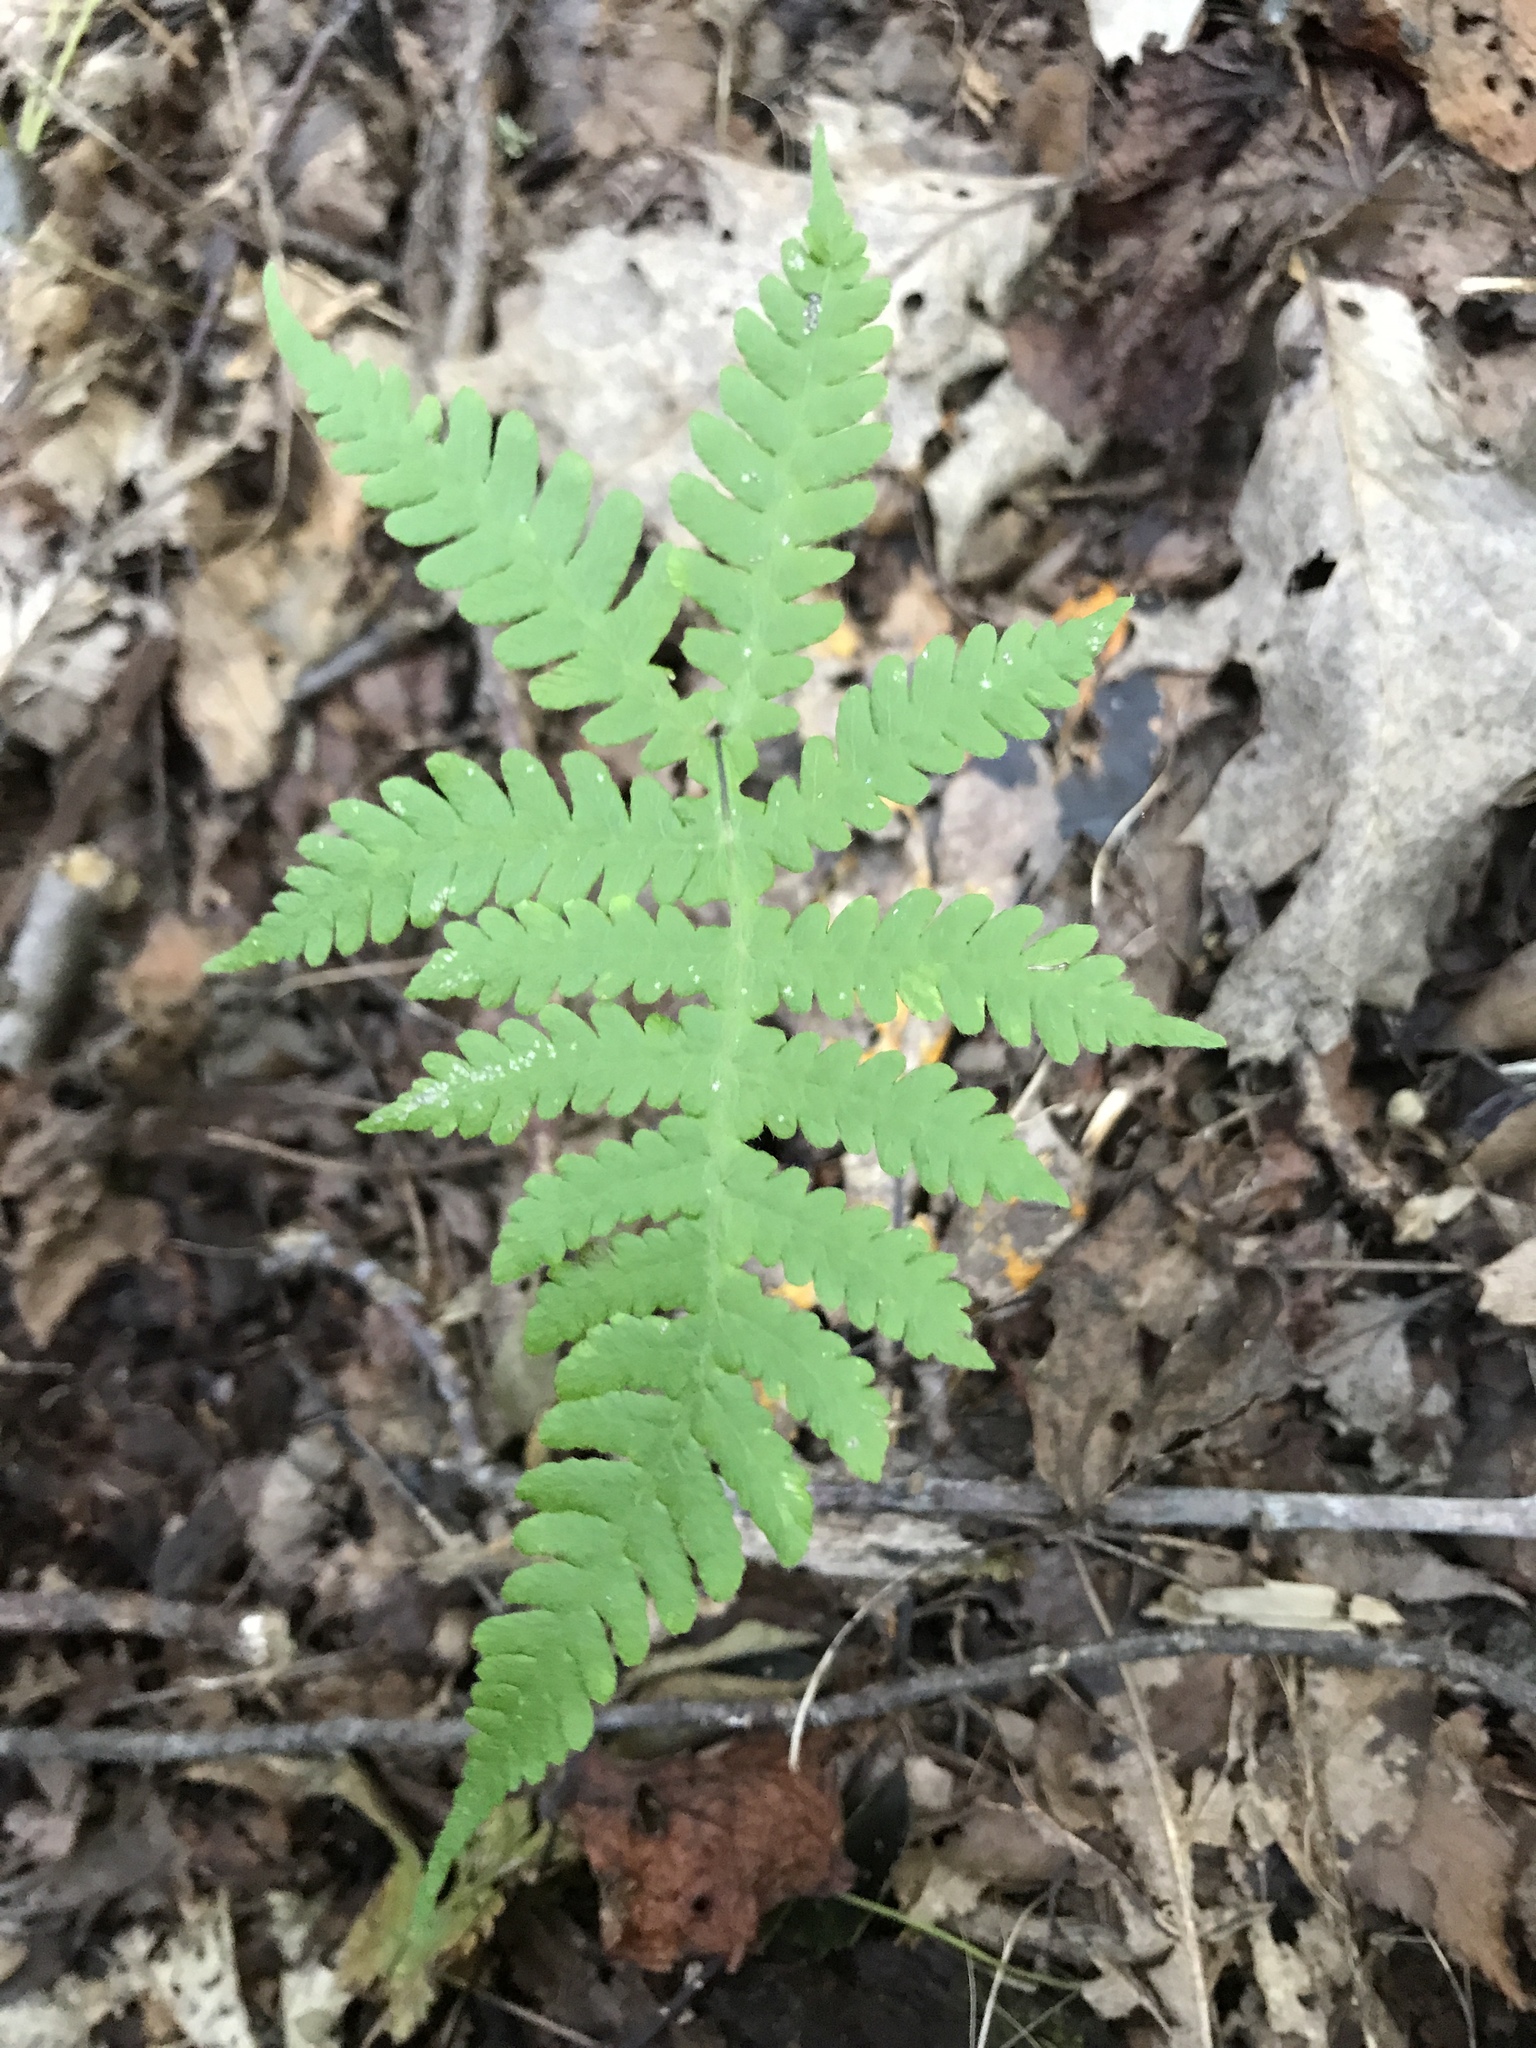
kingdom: Plantae
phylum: Tracheophyta
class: Polypodiopsida
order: Polypodiales
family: Thelypteridaceae
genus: Phegopteris
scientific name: Phegopteris hexagonoptera
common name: Broad beech fern
